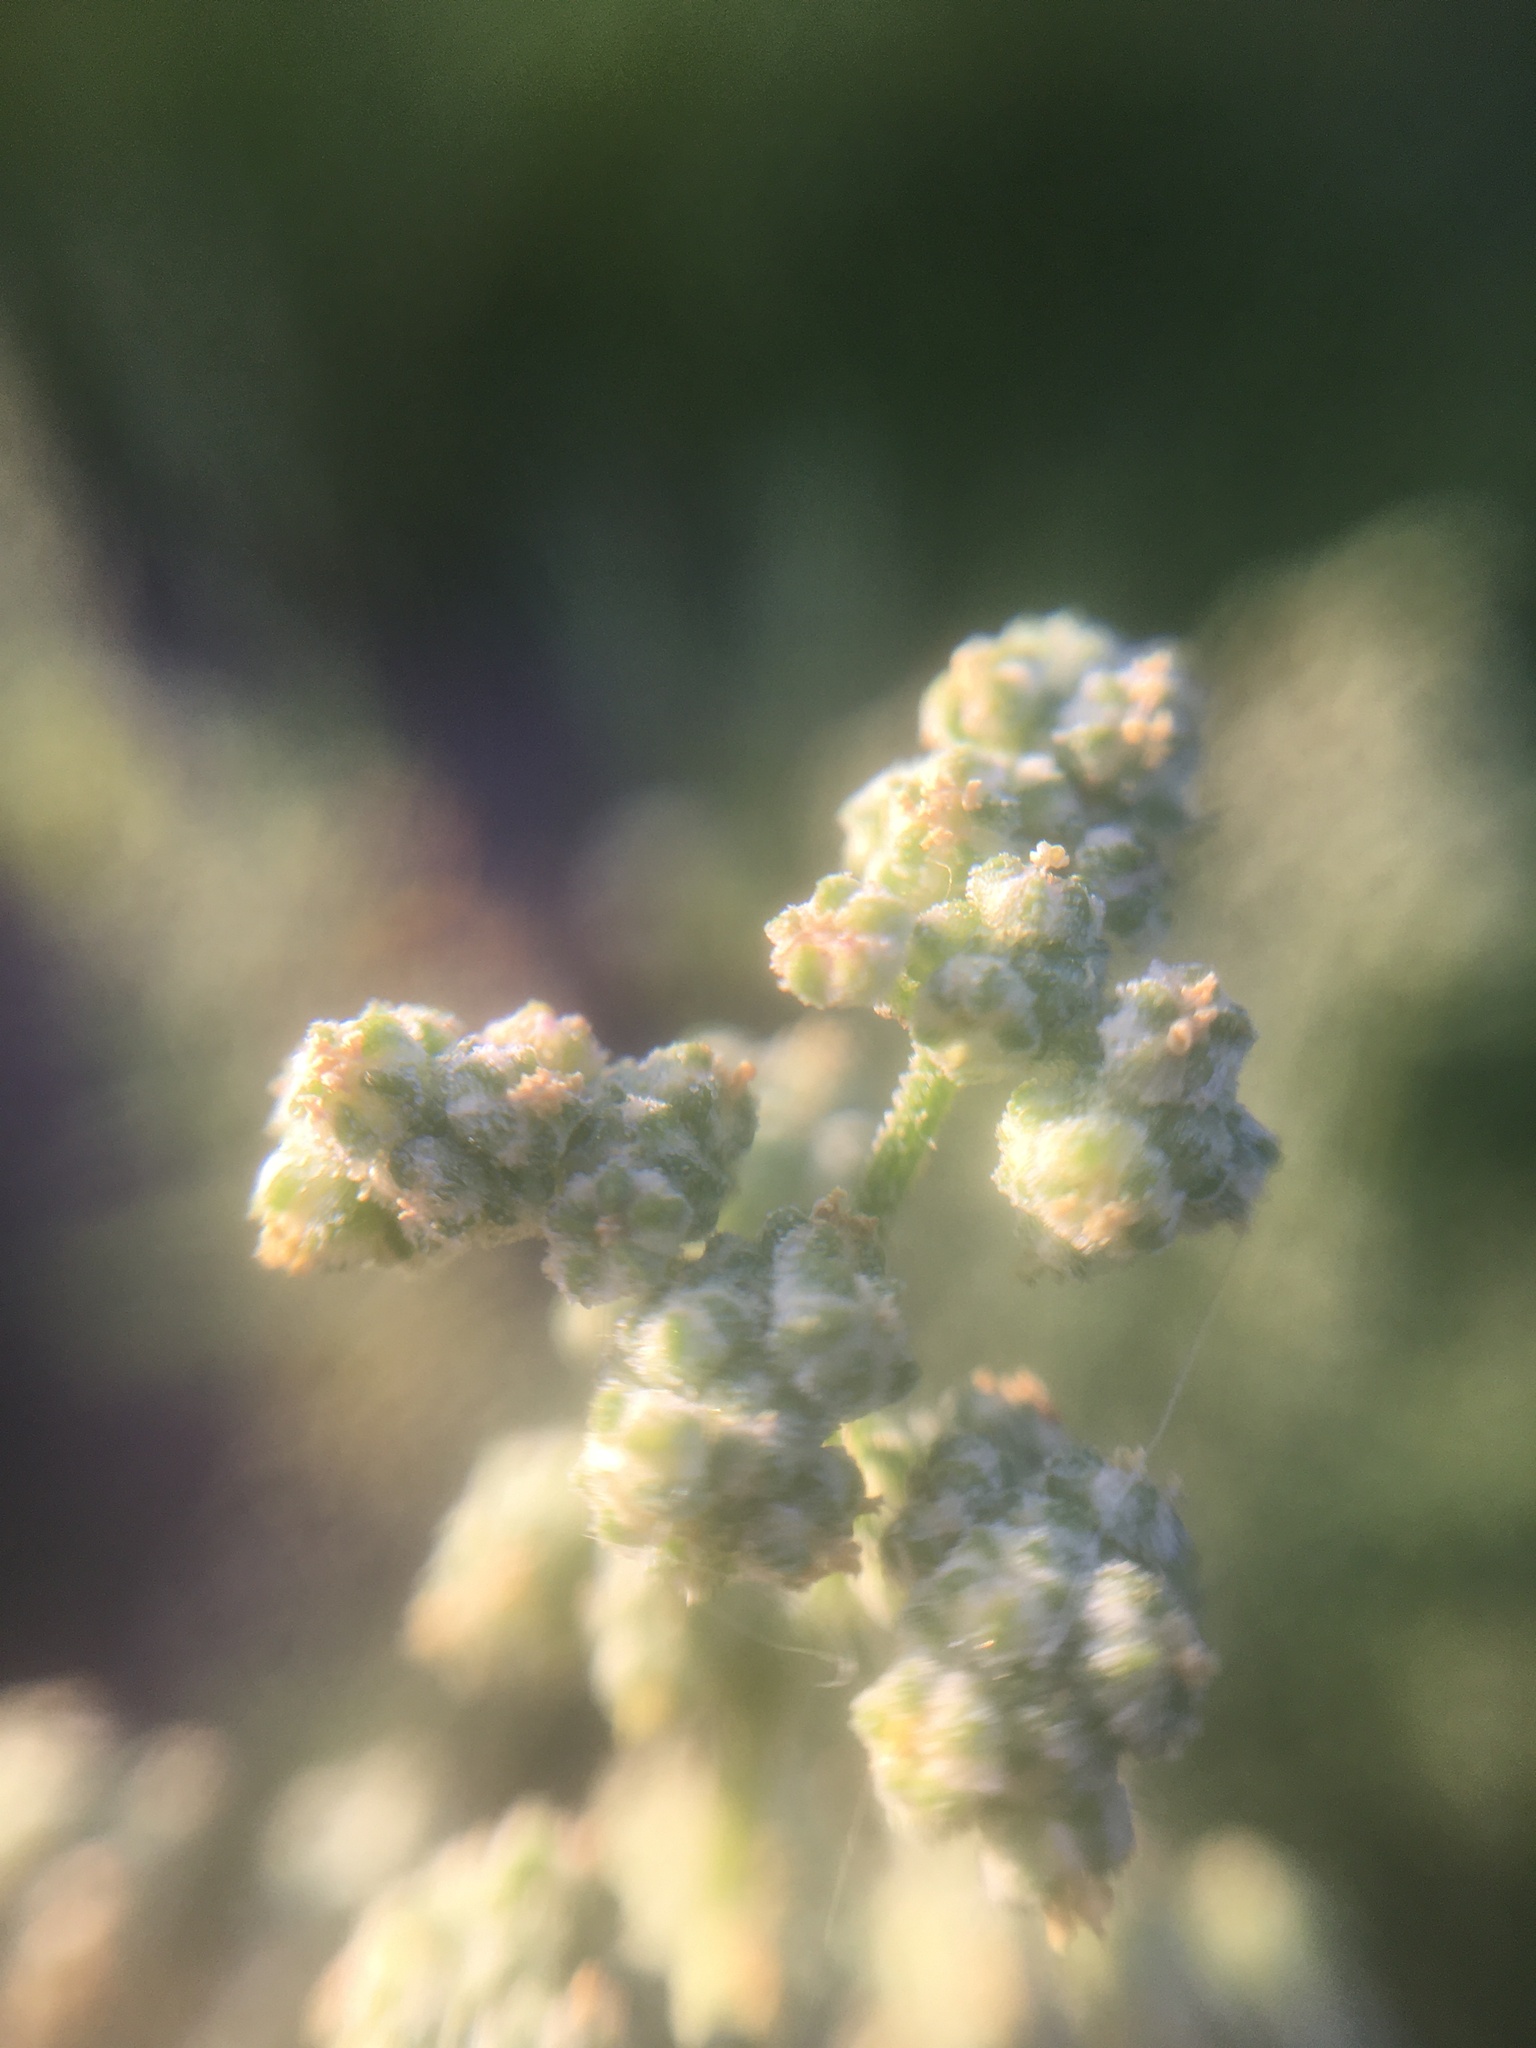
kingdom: Plantae
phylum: Tracheophyta
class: Magnoliopsida
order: Caryophyllales
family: Amaranthaceae
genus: Chenopodium
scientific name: Chenopodium album
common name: Fat-hen
